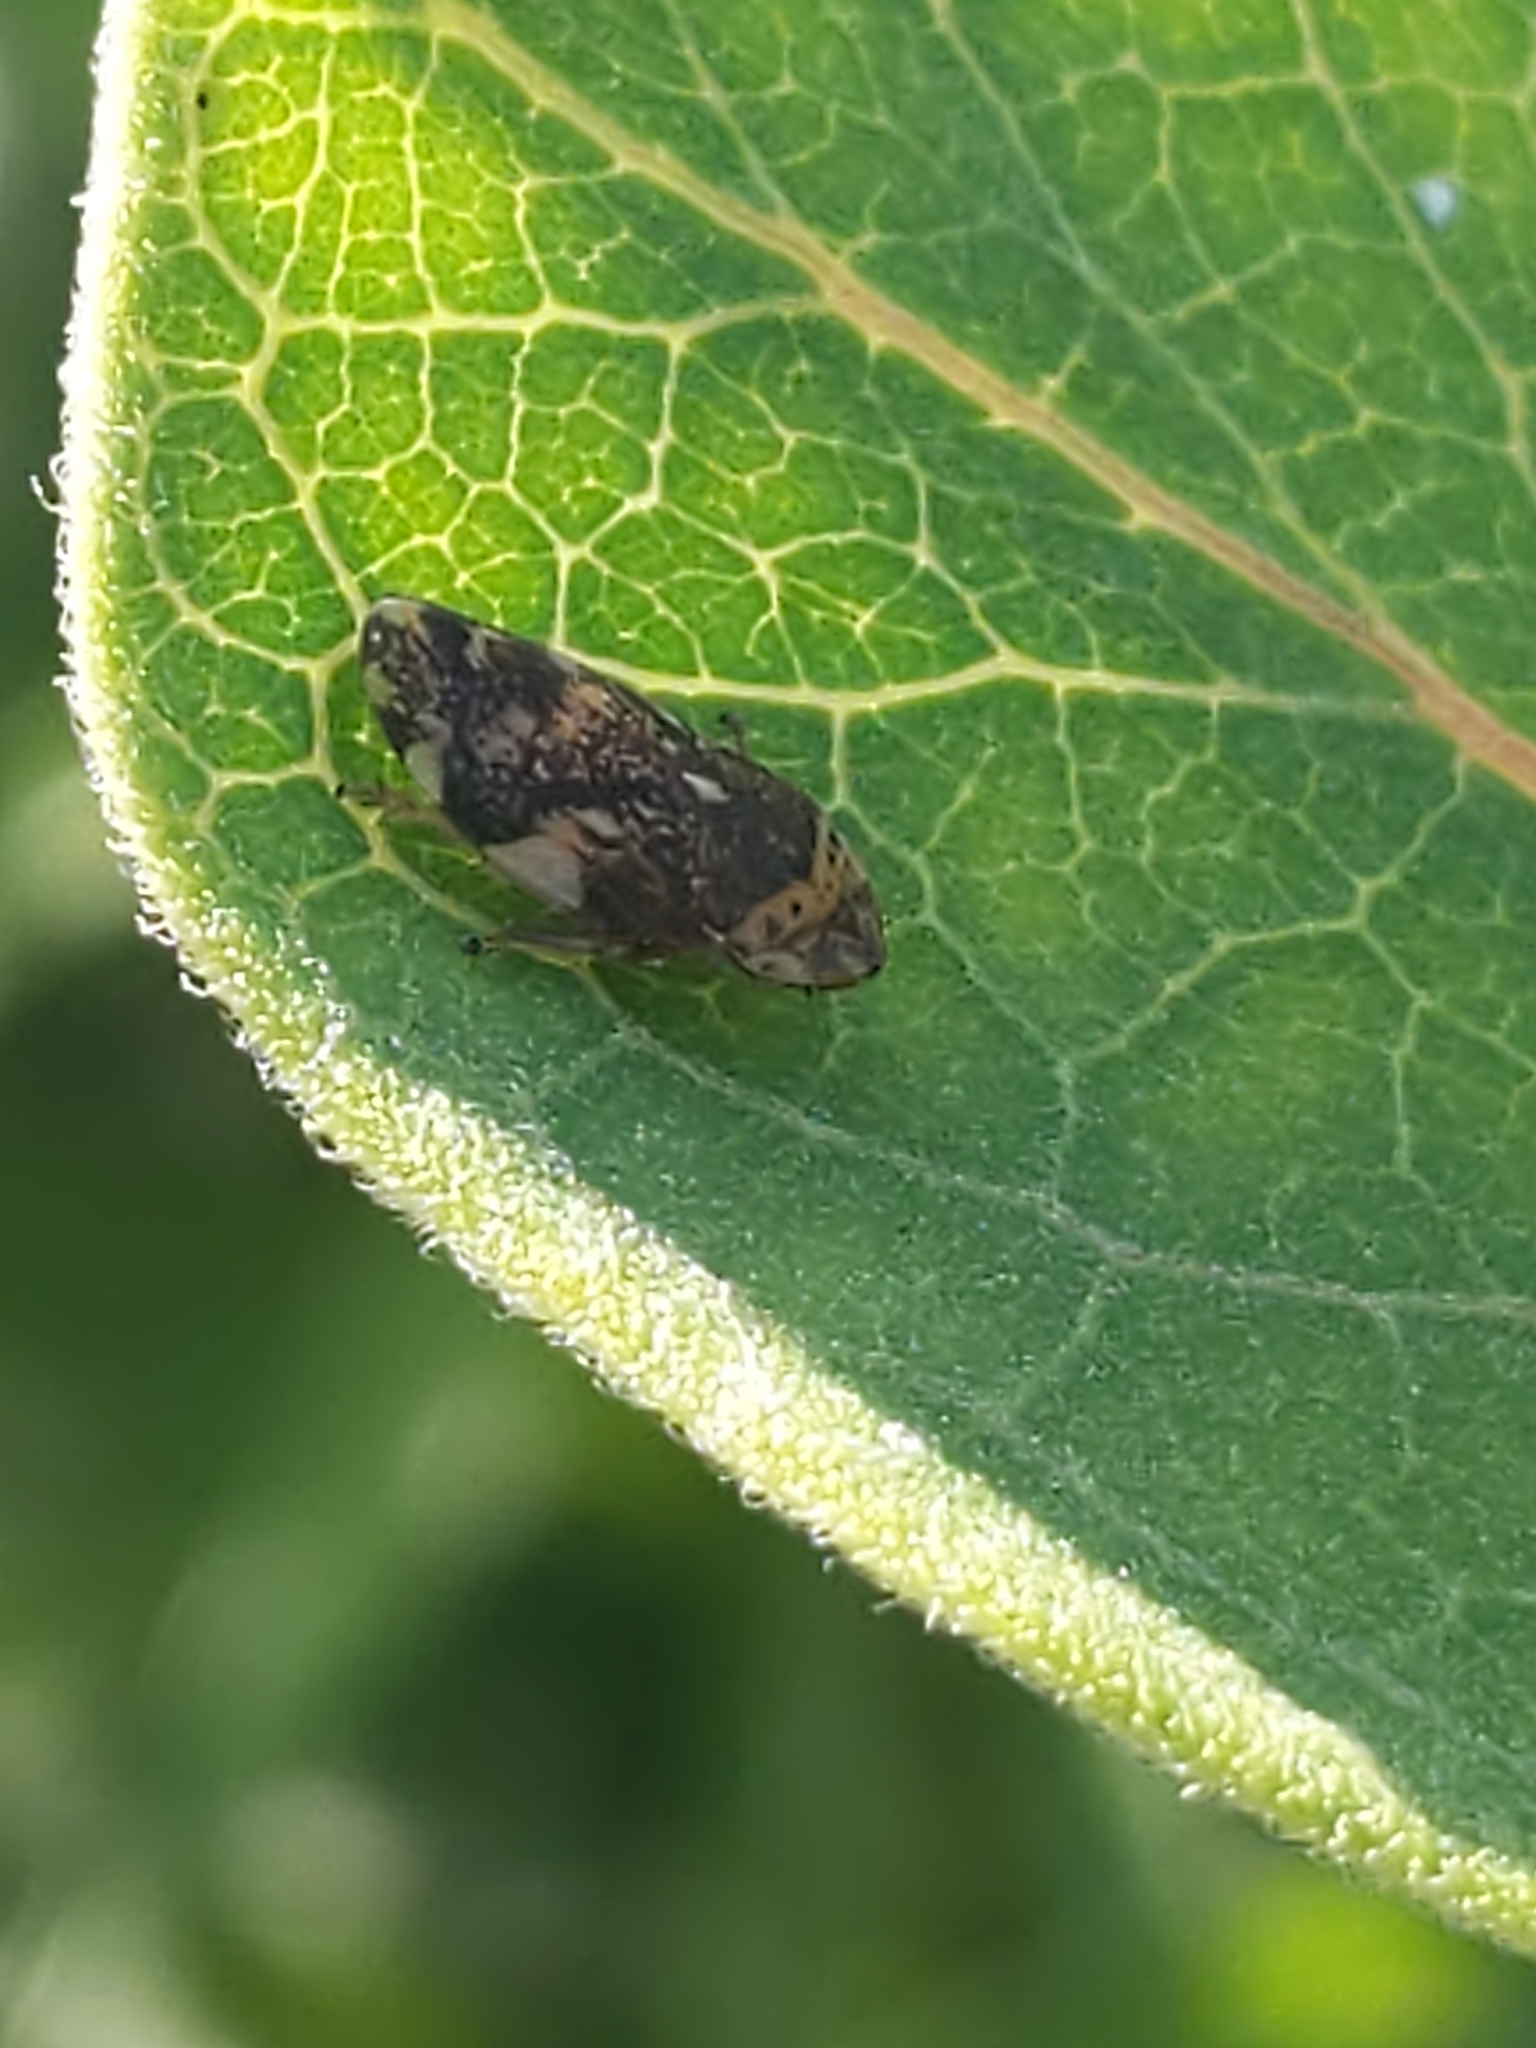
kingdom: Animalia
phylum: Arthropoda
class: Insecta
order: Hemiptera
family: Aphrophoridae
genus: Philaenus
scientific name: Philaenus spumarius
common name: Meadow spittlebug
